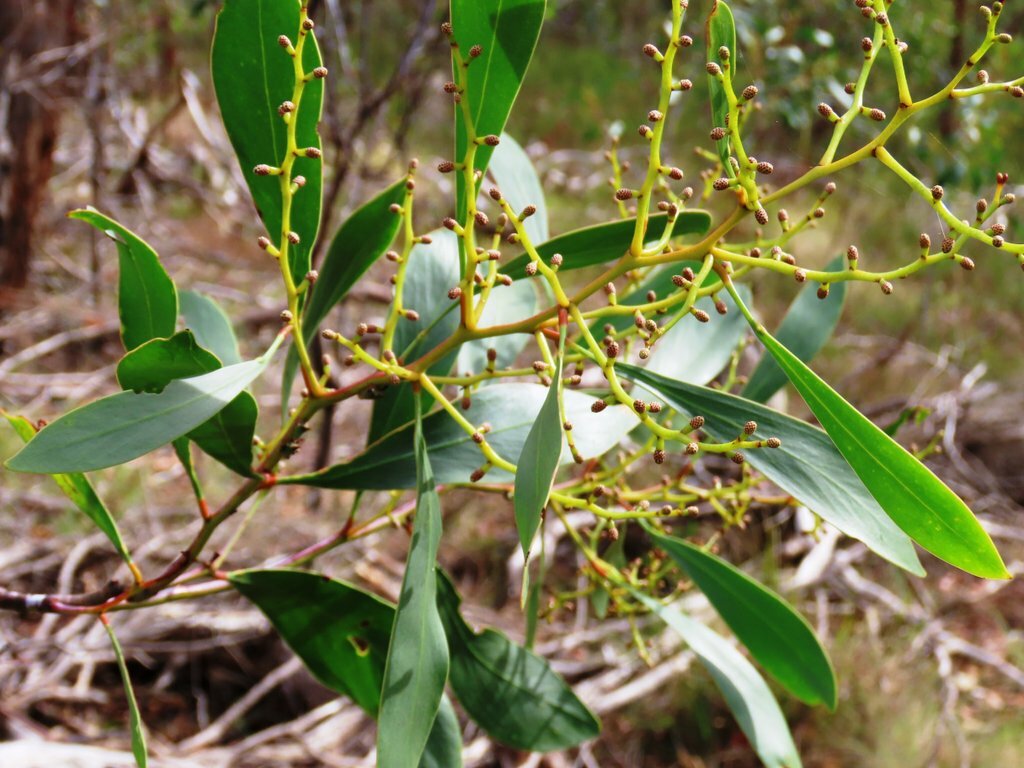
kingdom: Plantae
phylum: Tracheophyta
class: Magnoliopsida
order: Fabales
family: Fabaceae
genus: Acacia
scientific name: Acacia pycnantha
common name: Golden wattle
